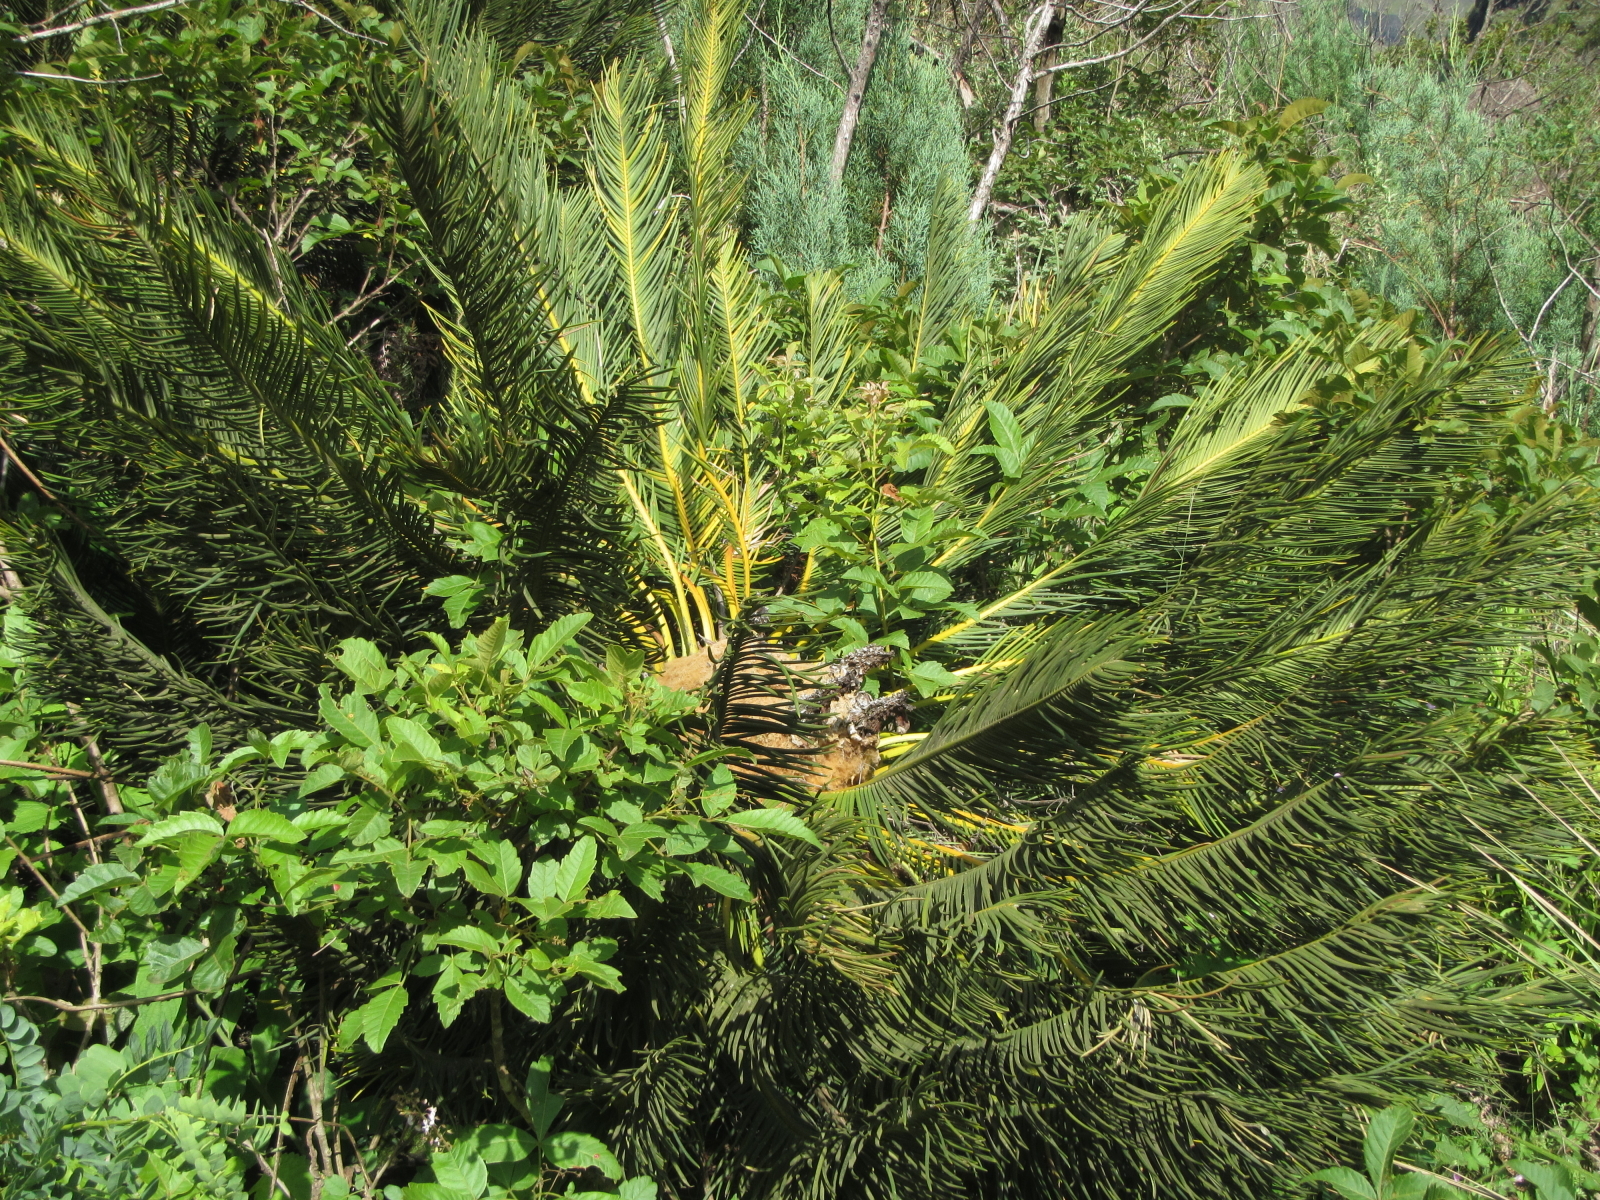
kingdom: Plantae
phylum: Tracheophyta
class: Cycadopsida
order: Cycadales
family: Zamiaceae
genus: Encephalartos
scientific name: Encephalartos ghellinckii
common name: Drakensberg cycad
